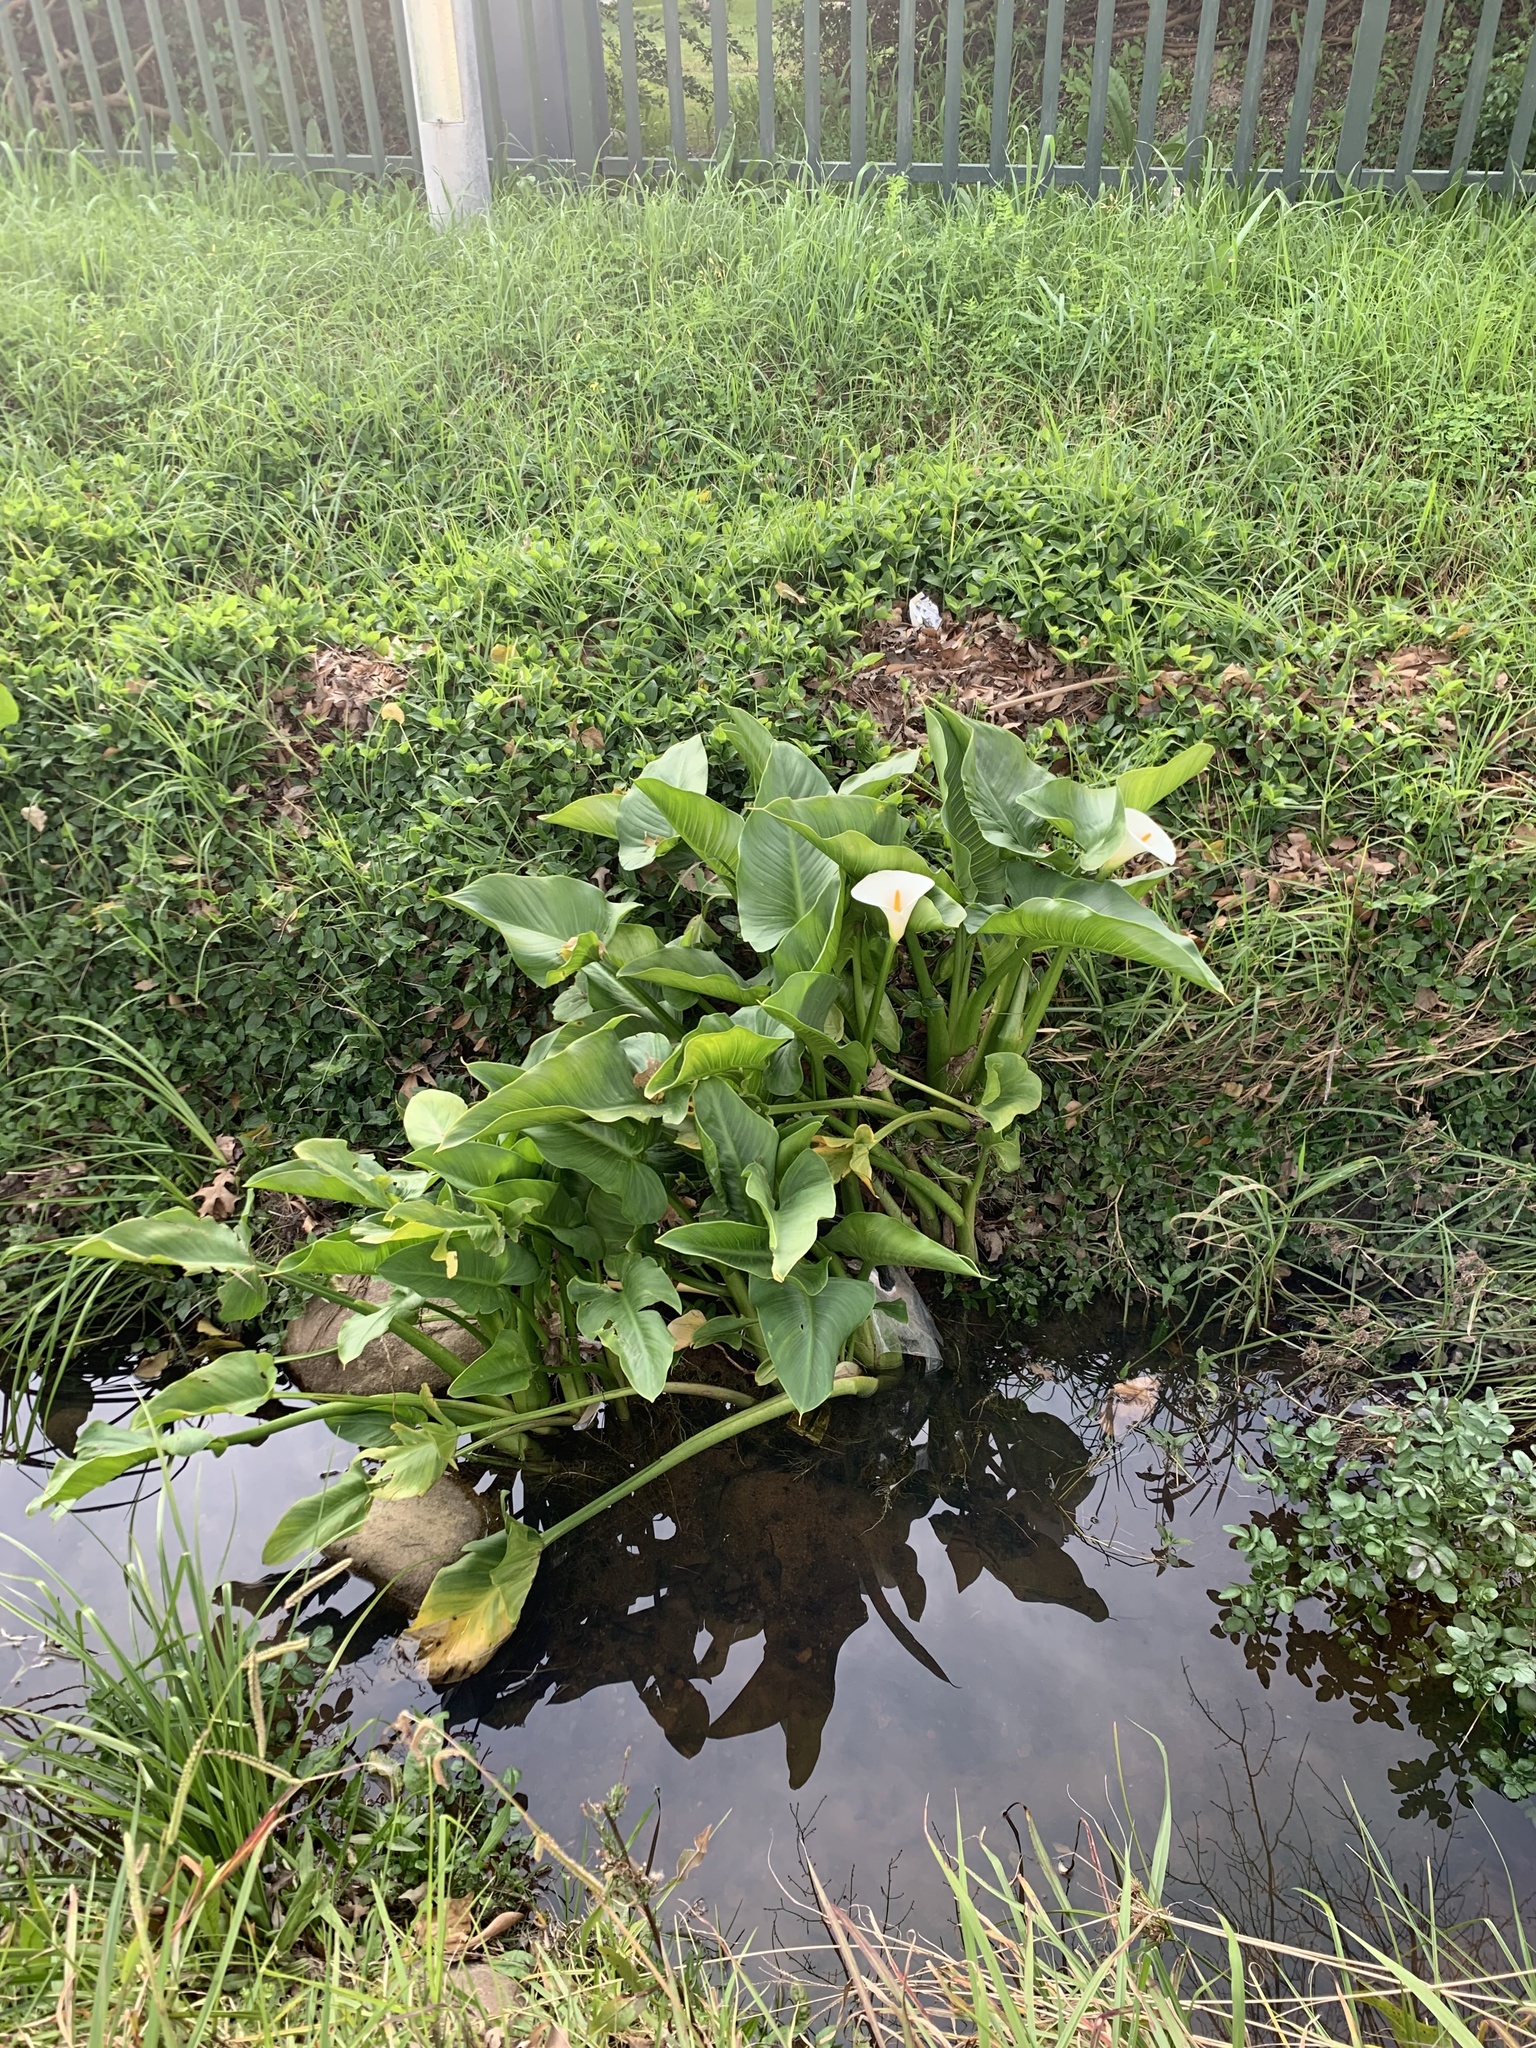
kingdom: Plantae
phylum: Tracheophyta
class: Liliopsida
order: Alismatales
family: Araceae
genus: Zantedeschia
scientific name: Zantedeschia aethiopica
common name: Altar-lily
